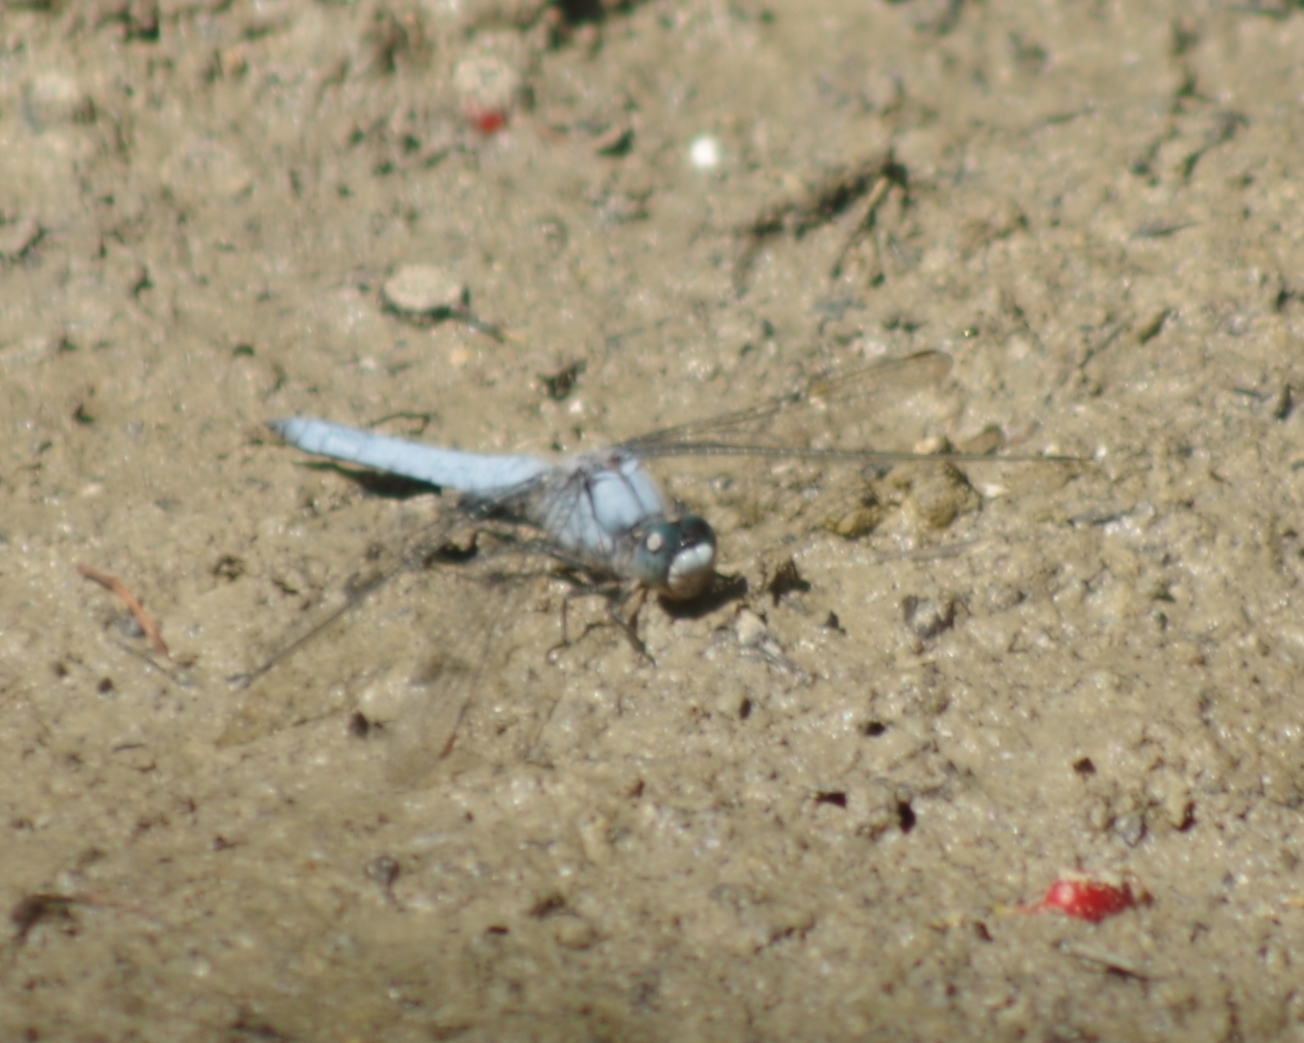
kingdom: Animalia
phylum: Arthropoda
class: Insecta
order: Odonata
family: Libellulidae
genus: Orthetrum
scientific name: Orthetrum brunneum
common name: Southern skimmer
